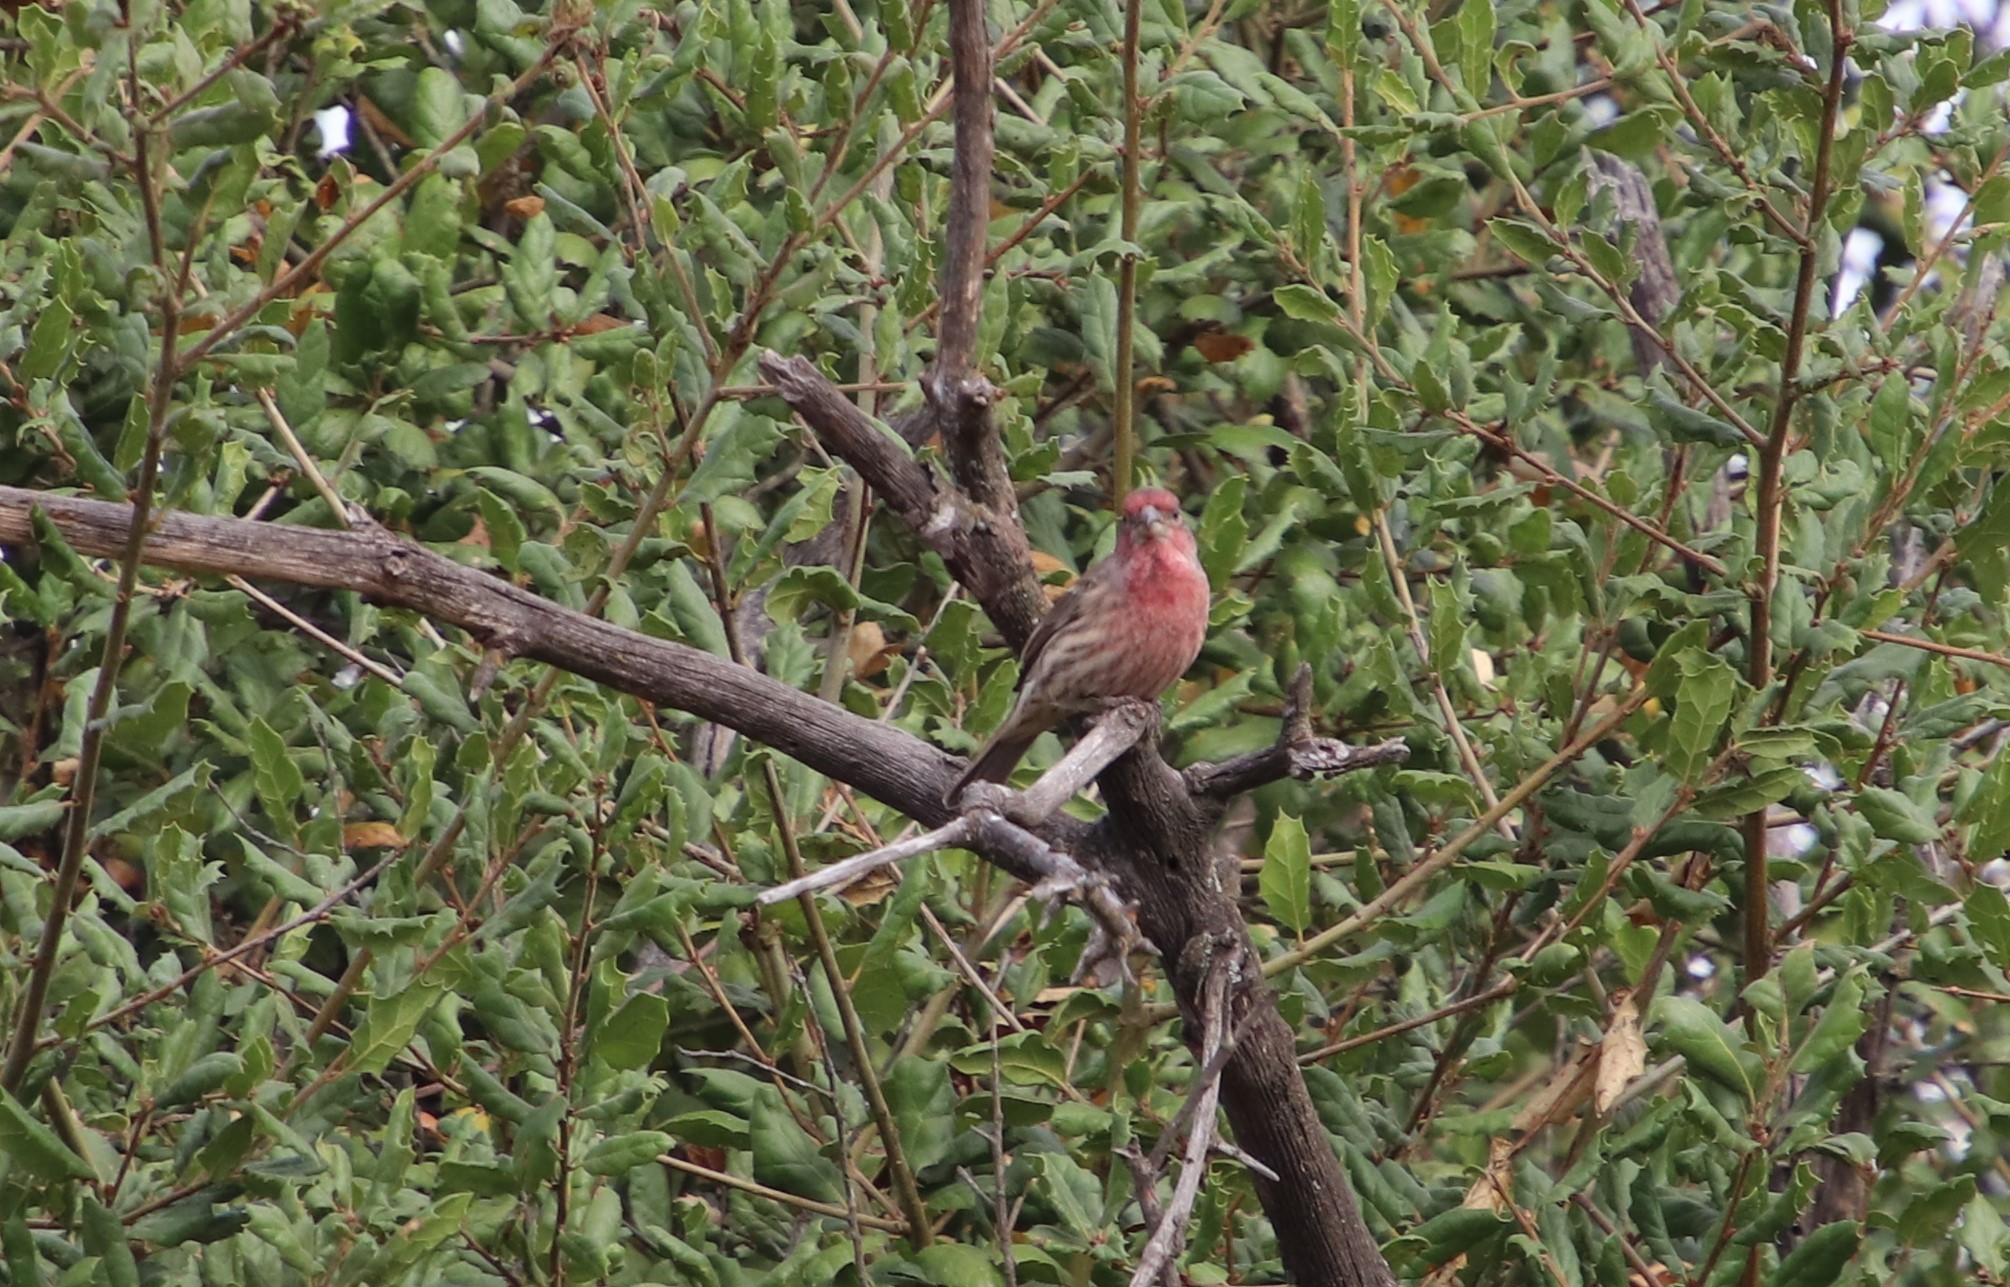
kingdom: Animalia
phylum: Chordata
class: Aves
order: Passeriformes
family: Fringillidae
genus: Haemorhous
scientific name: Haemorhous mexicanus
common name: House finch
